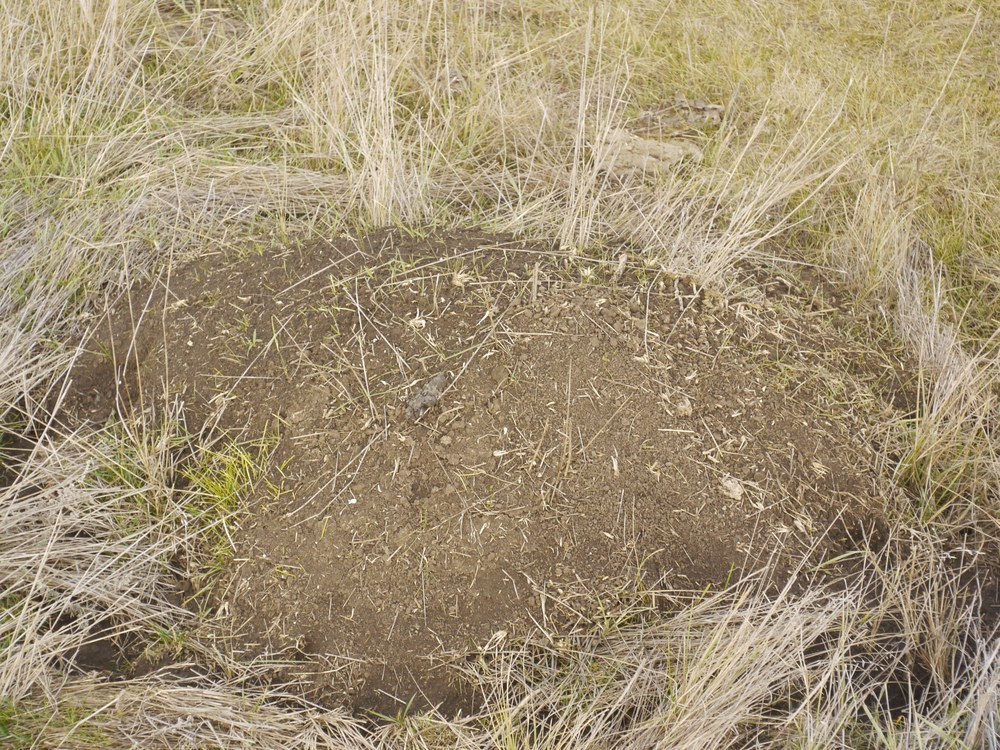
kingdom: Animalia
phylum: Chordata
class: Mammalia
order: Rodentia
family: Muridae
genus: Mus
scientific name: Mus spicilegus
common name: Mound-building mouse
